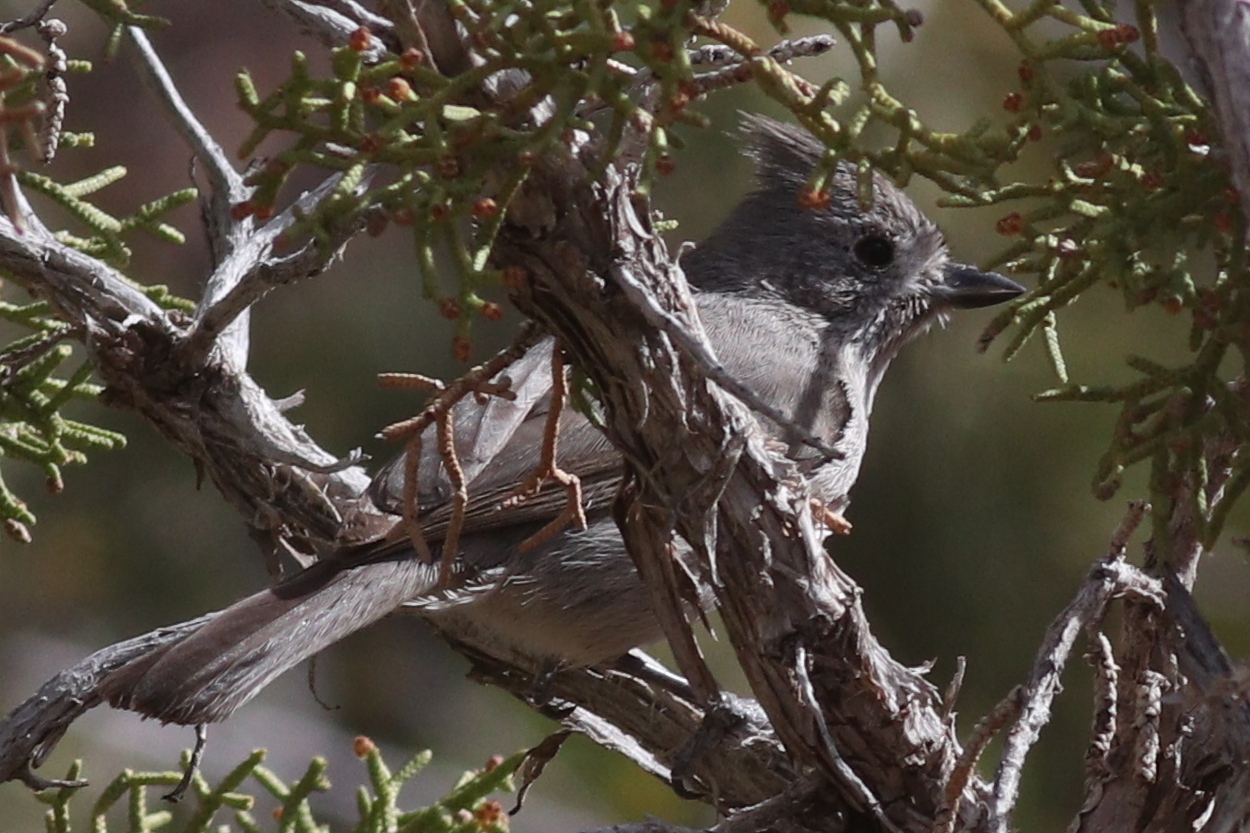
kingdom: Animalia
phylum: Chordata
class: Aves
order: Passeriformes
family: Paridae
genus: Baeolophus
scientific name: Baeolophus ridgwayi
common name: Juniper titmouse
